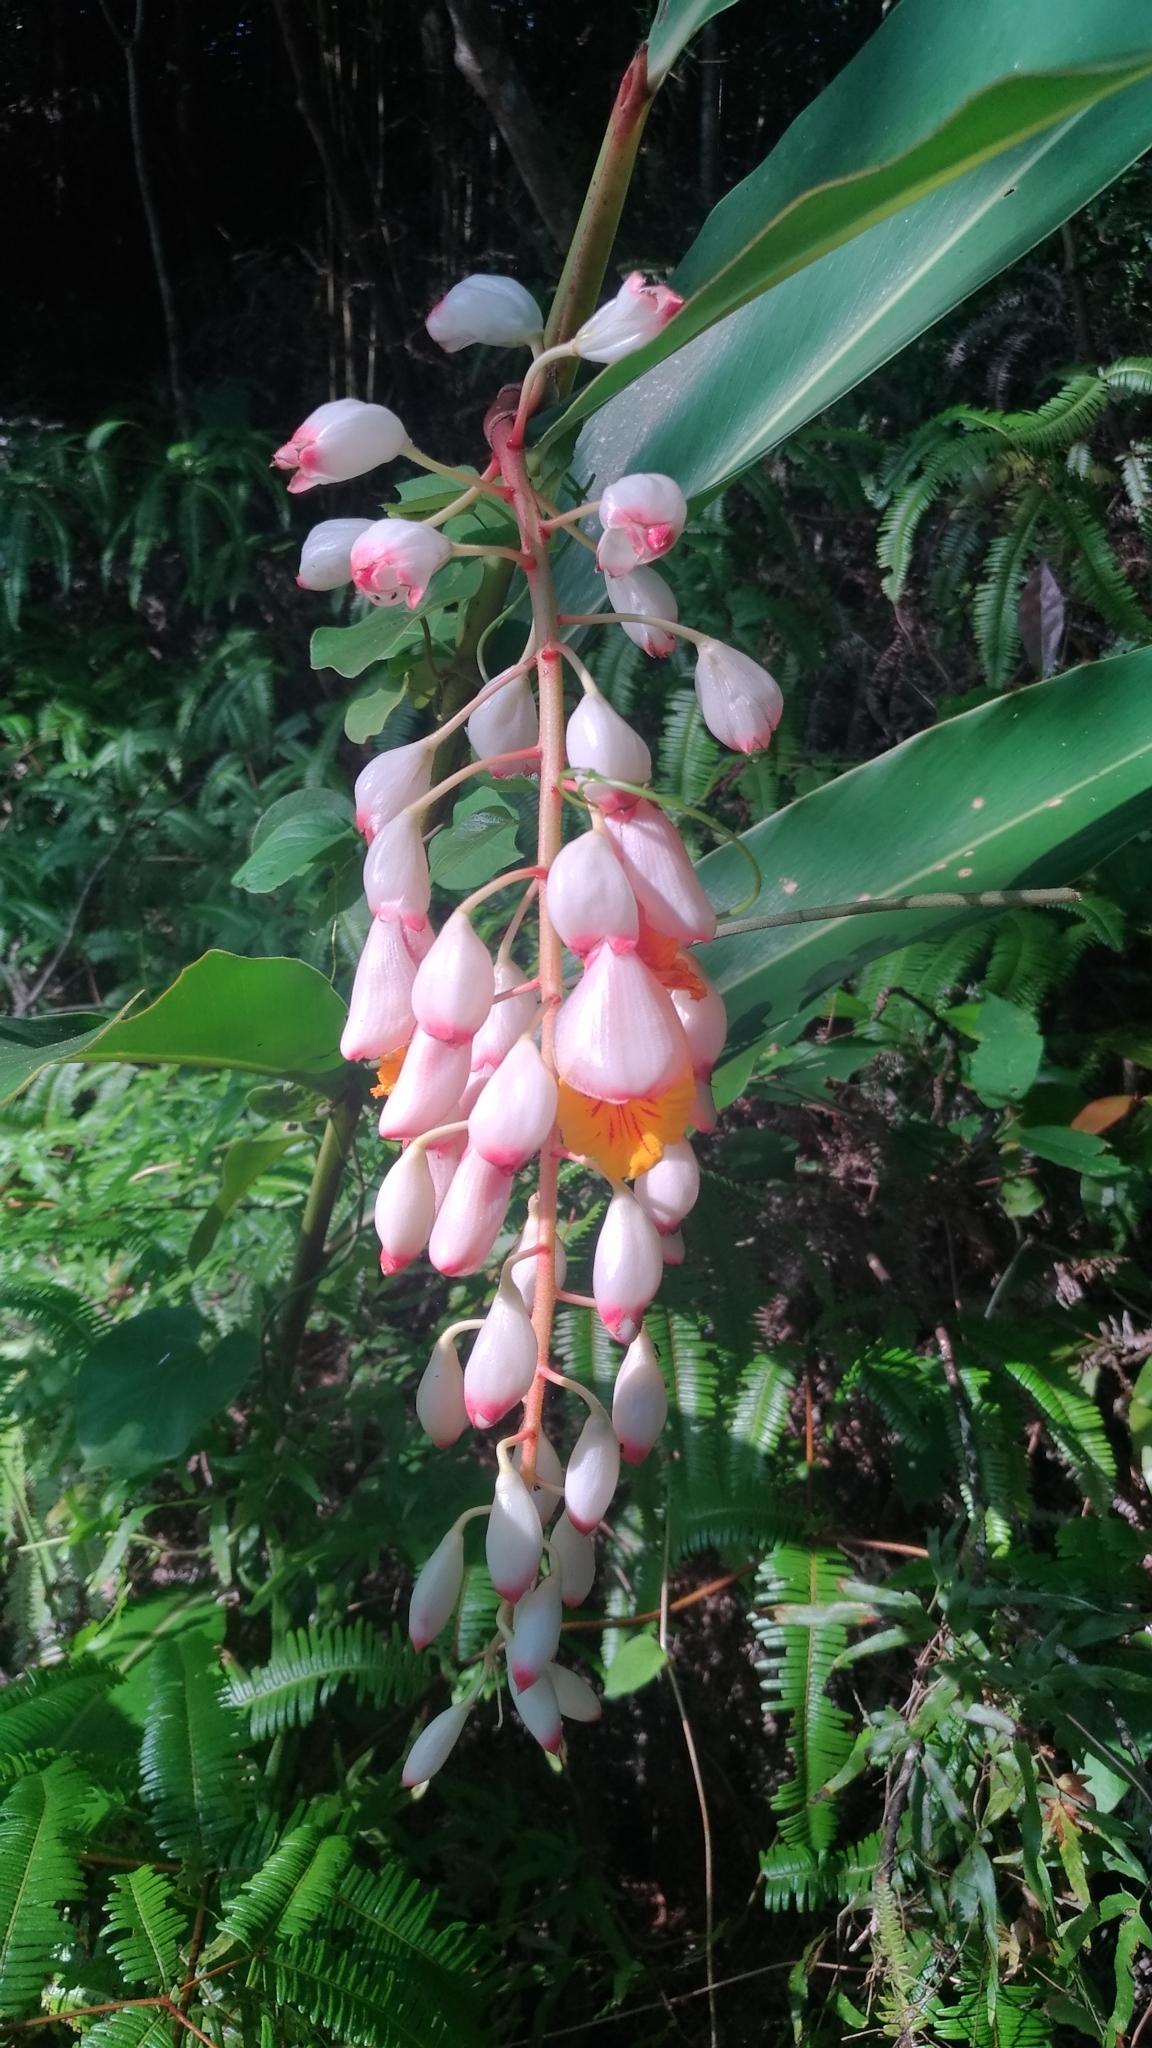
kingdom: Plantae
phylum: Tracheophyta
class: Liliopsida
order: Zingiberales
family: Zingiberaceae
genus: Alpinia
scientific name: Alpinia zerumbet
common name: Shellplant
